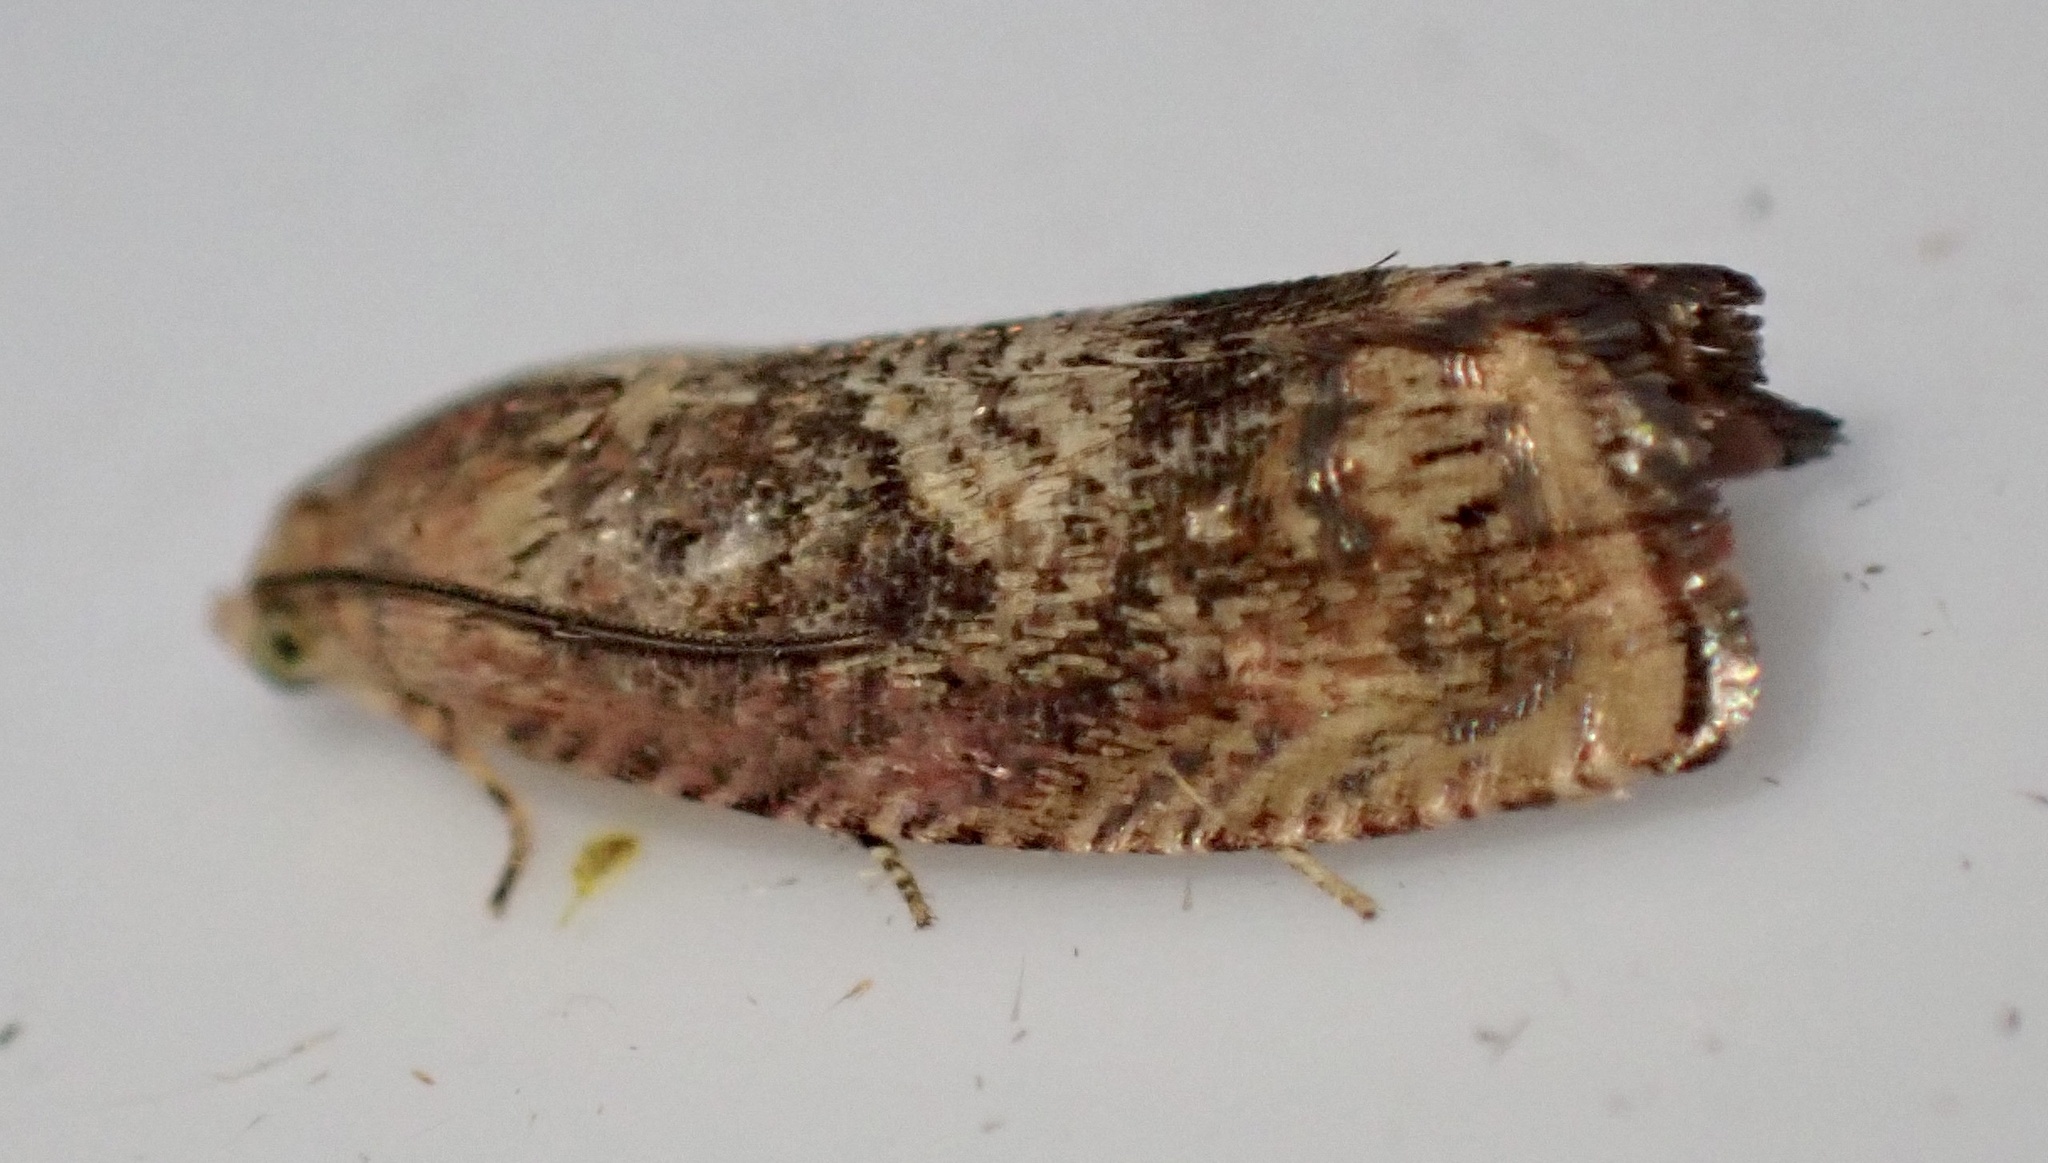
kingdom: Animalia
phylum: Arthropoda
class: Insecta
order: Lepidoptera
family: Tortricidae
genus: Cydia
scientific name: Cydia amplana
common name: Vagrant piercer
